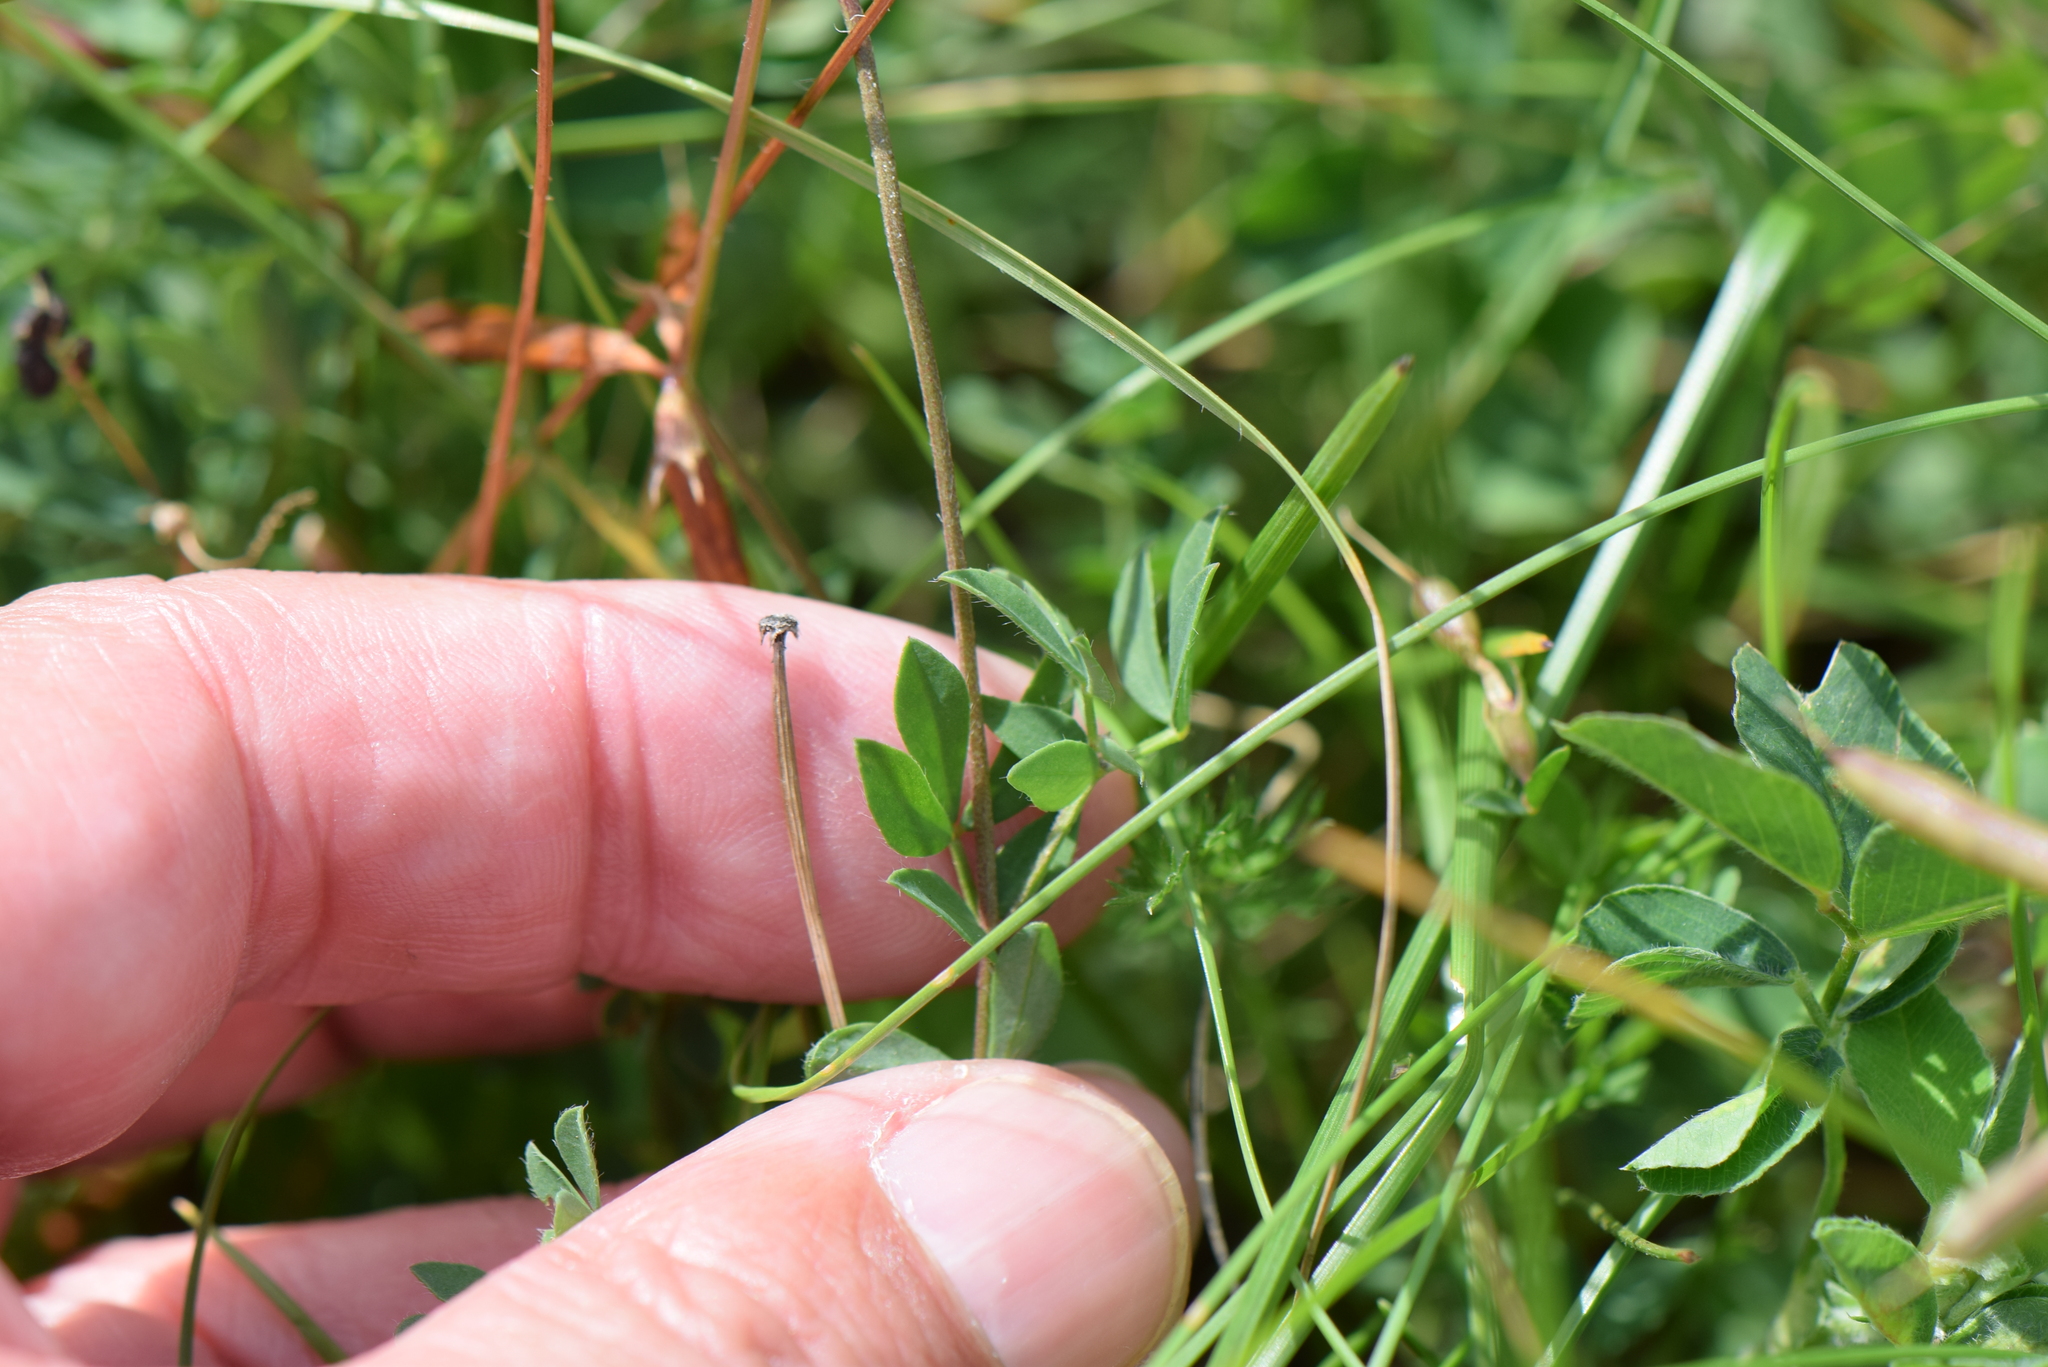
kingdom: Plantae
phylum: Tracheophyta
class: Magnoliopsida
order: Fabales
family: Fabaceae
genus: Lotus
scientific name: Lotus corniculatus
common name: Common bird's-foot-trefoil
